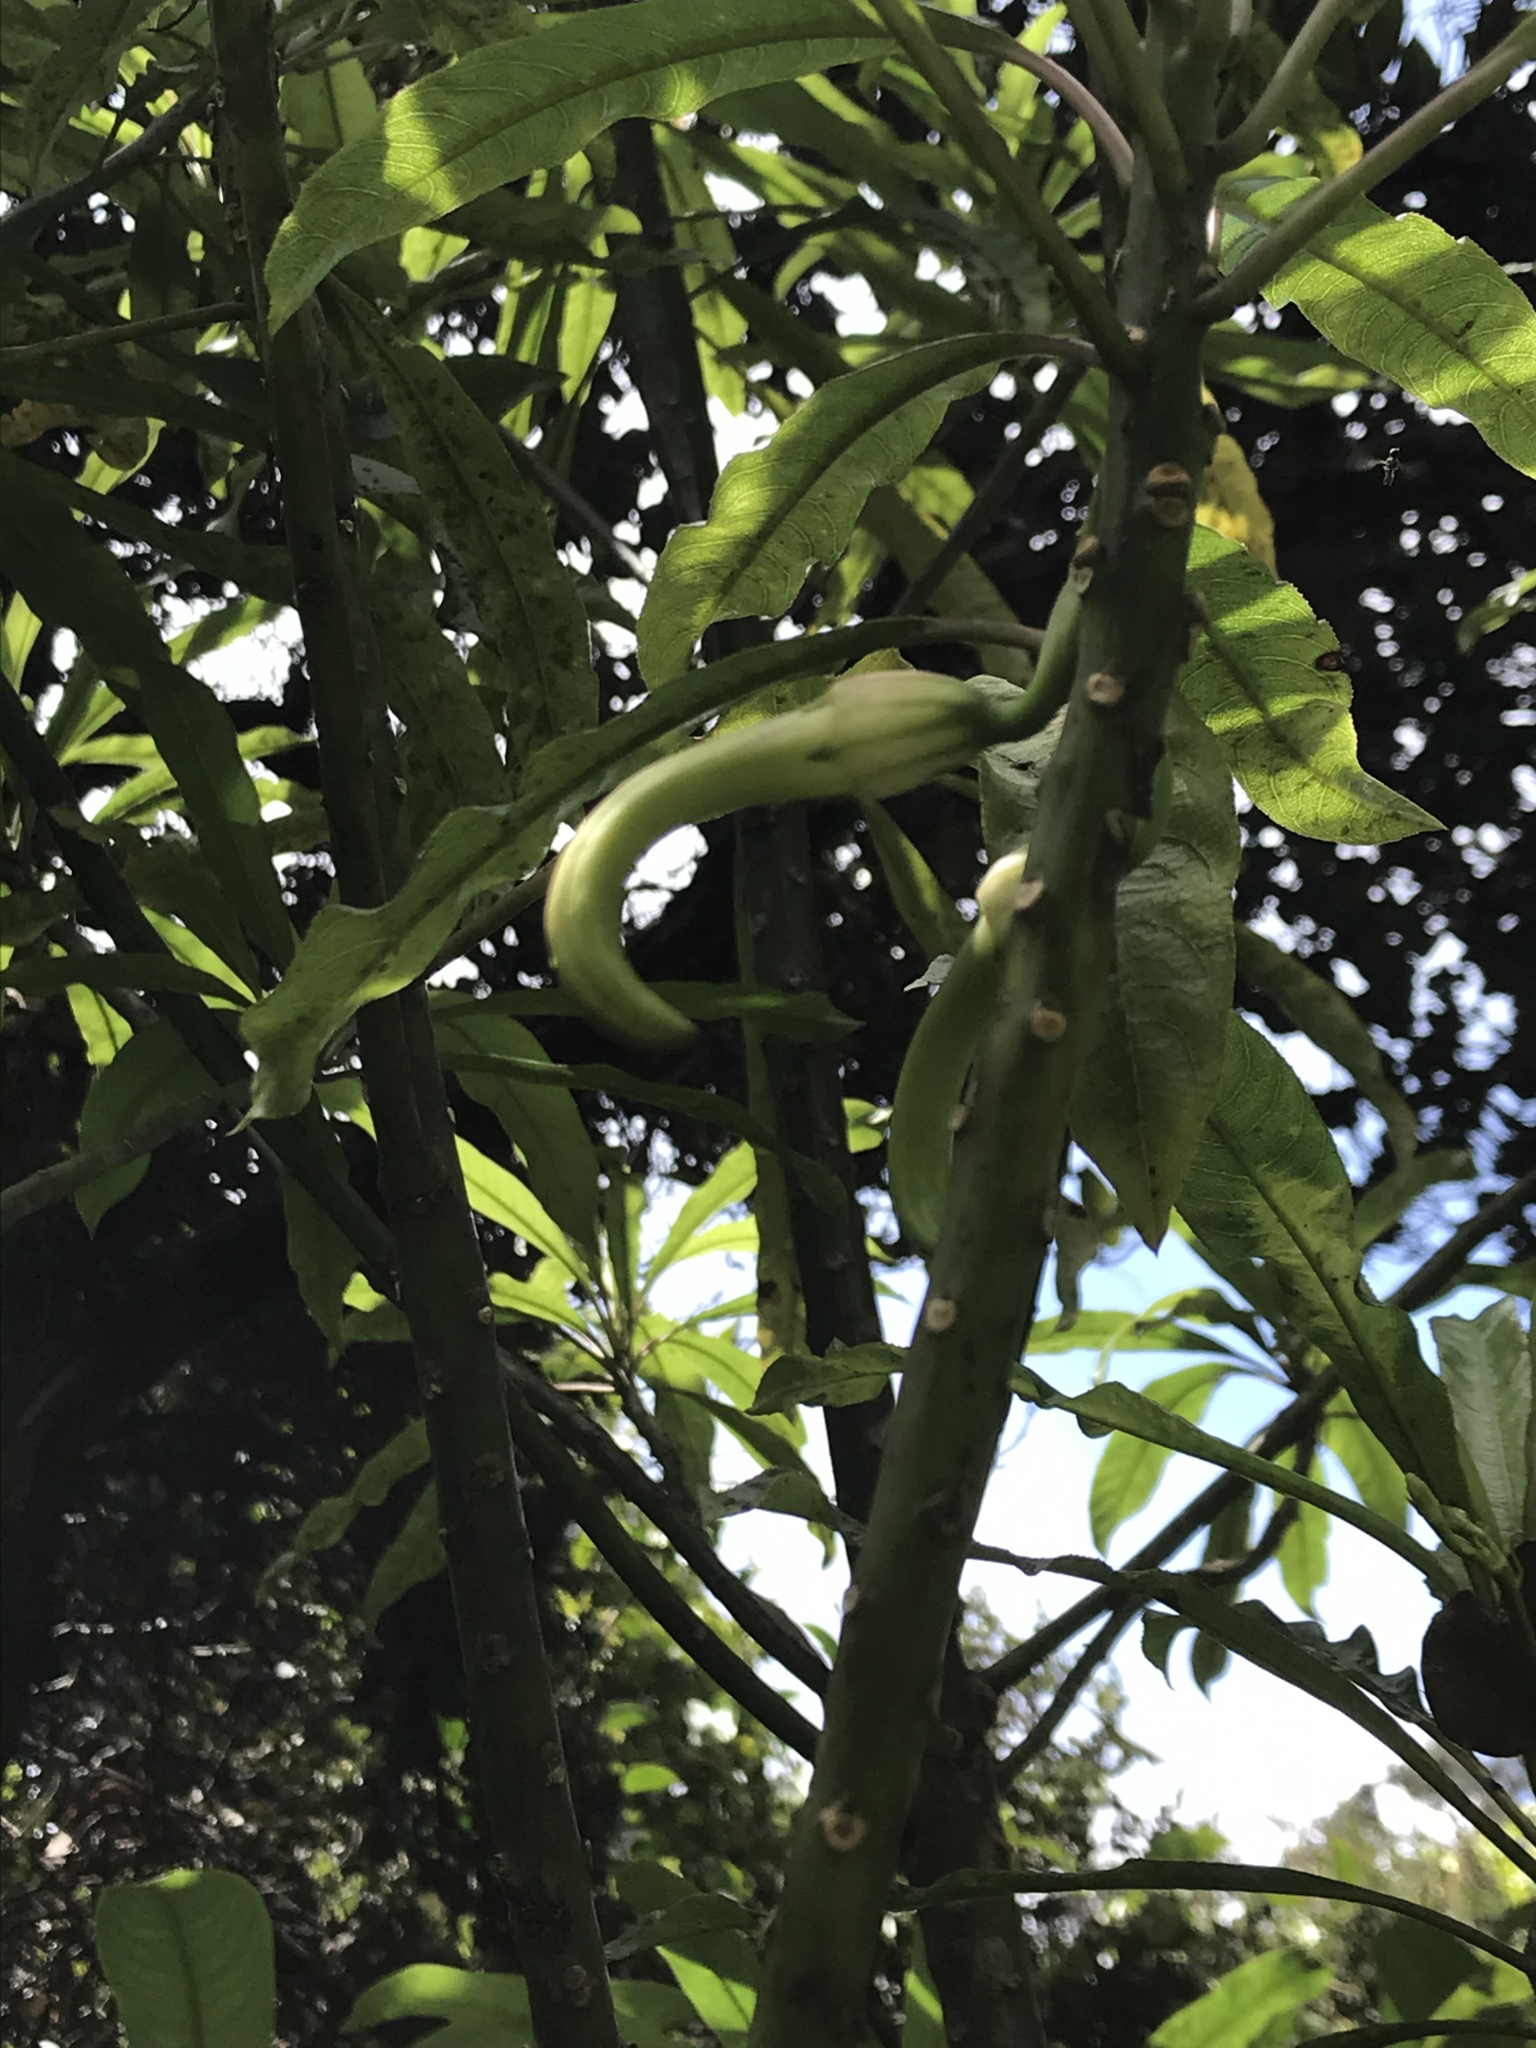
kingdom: Plantae
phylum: Tracheophyta
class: Magnoliopsida
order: Asterales
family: Campanulaceae
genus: Clermontia
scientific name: Clermontia clermontioides
